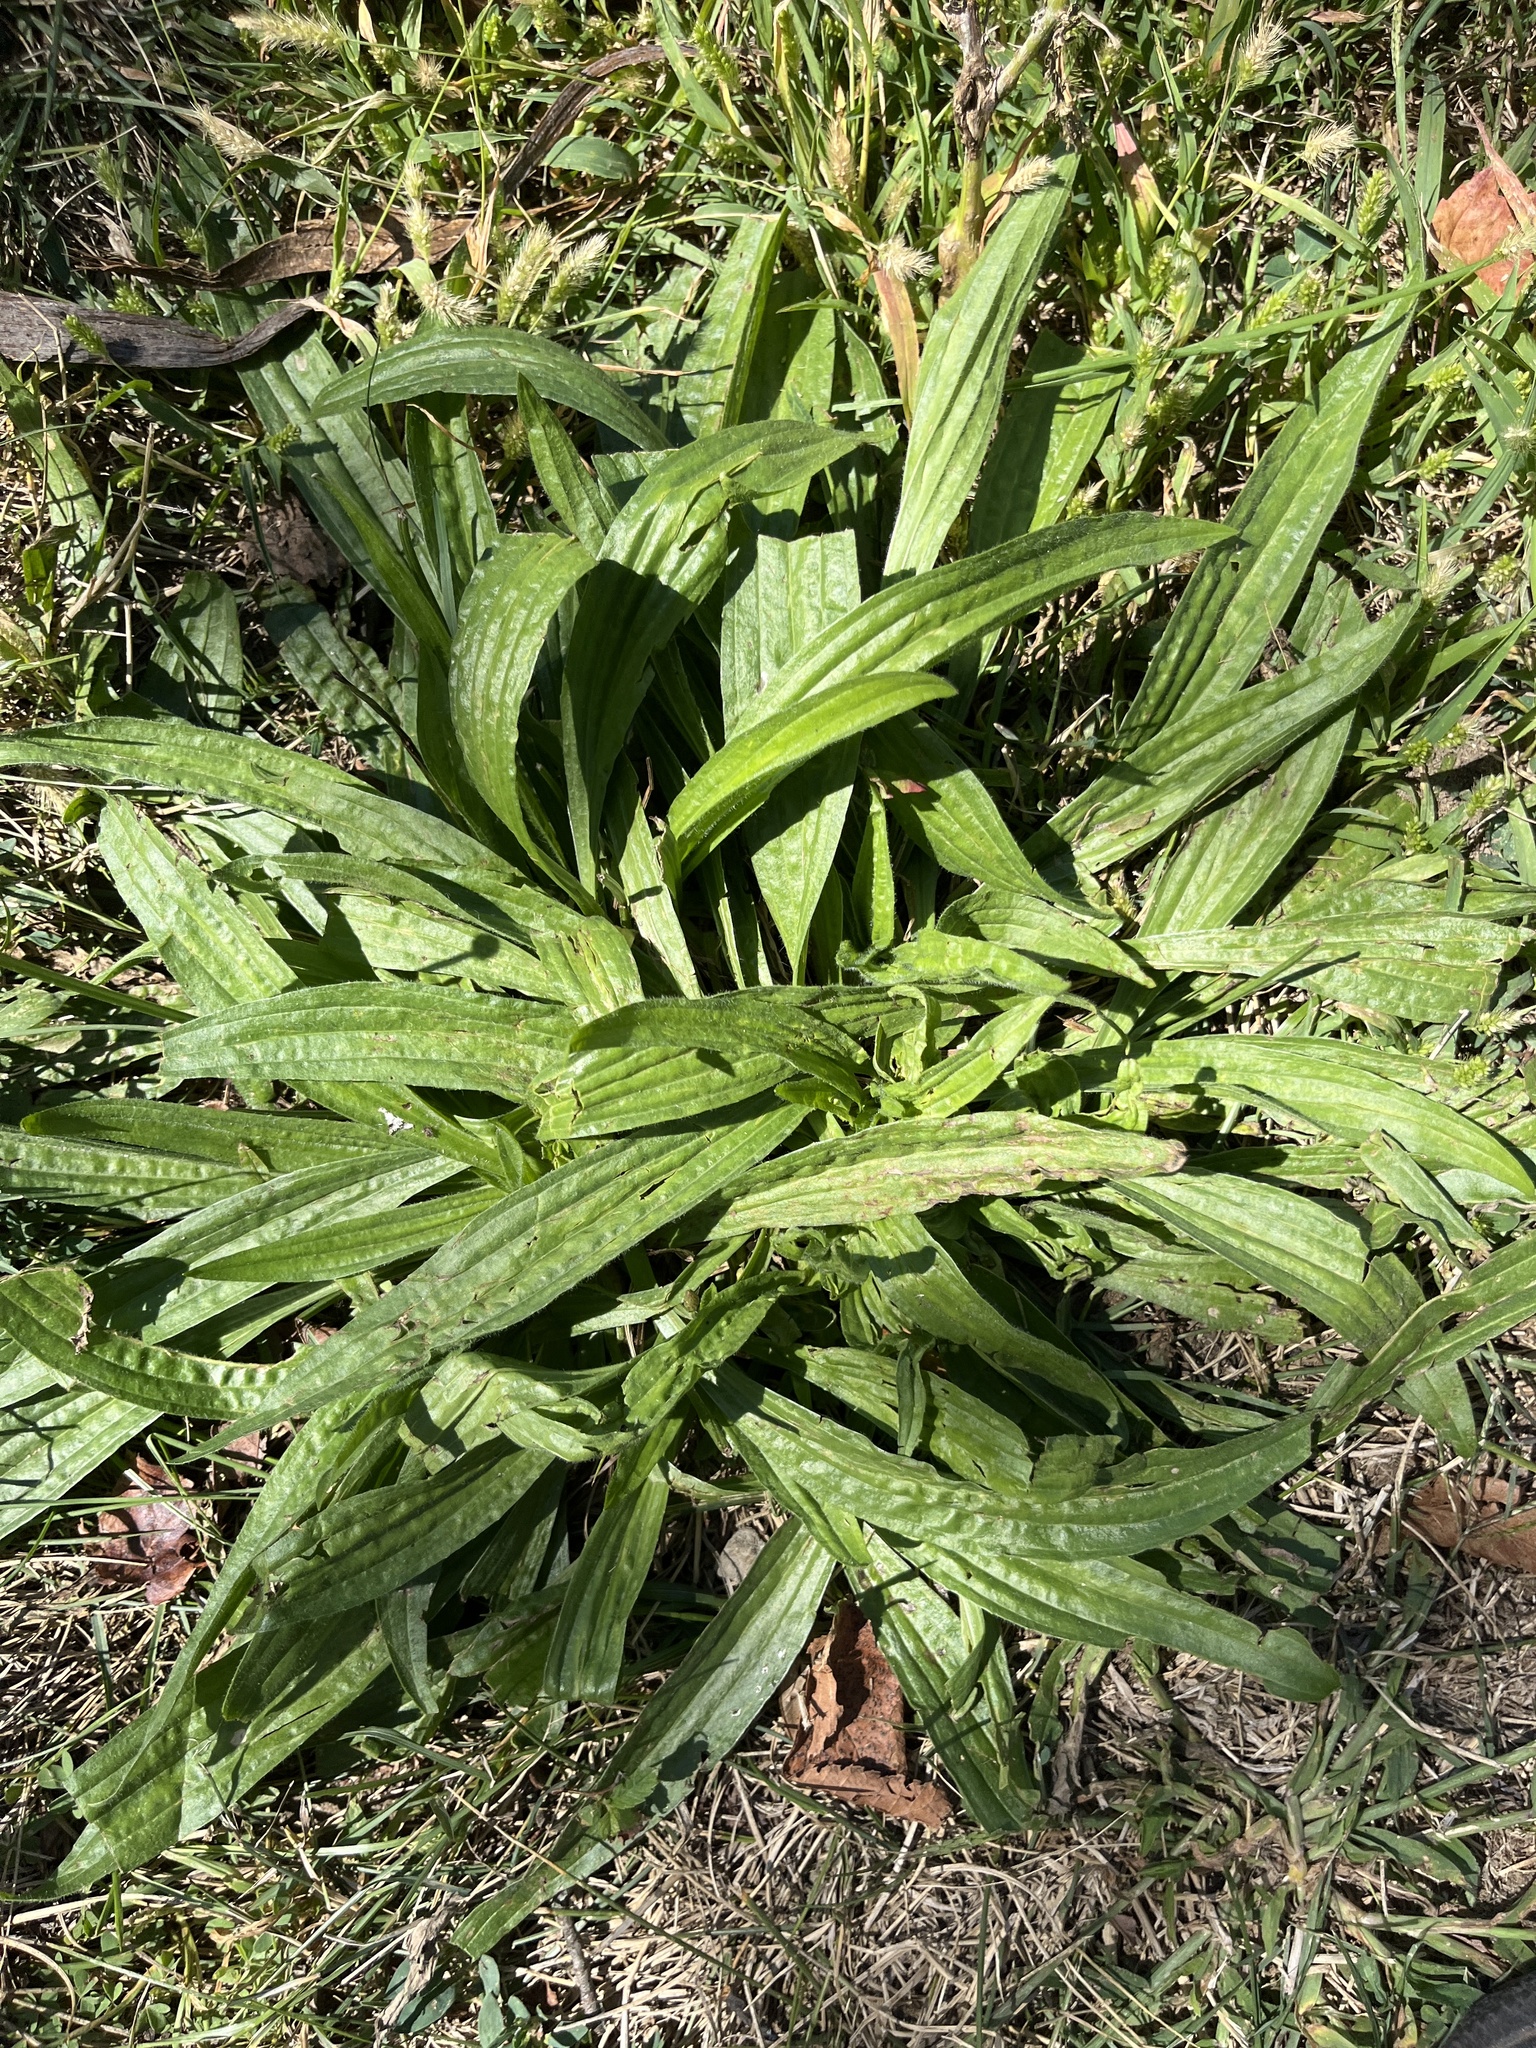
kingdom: Plantae
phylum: Tracheophyta
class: Magnoliopsida
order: Lamiales
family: Plantaginaceae
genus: Plantago
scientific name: Plantago lanceolata
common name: Ribwort plantain
